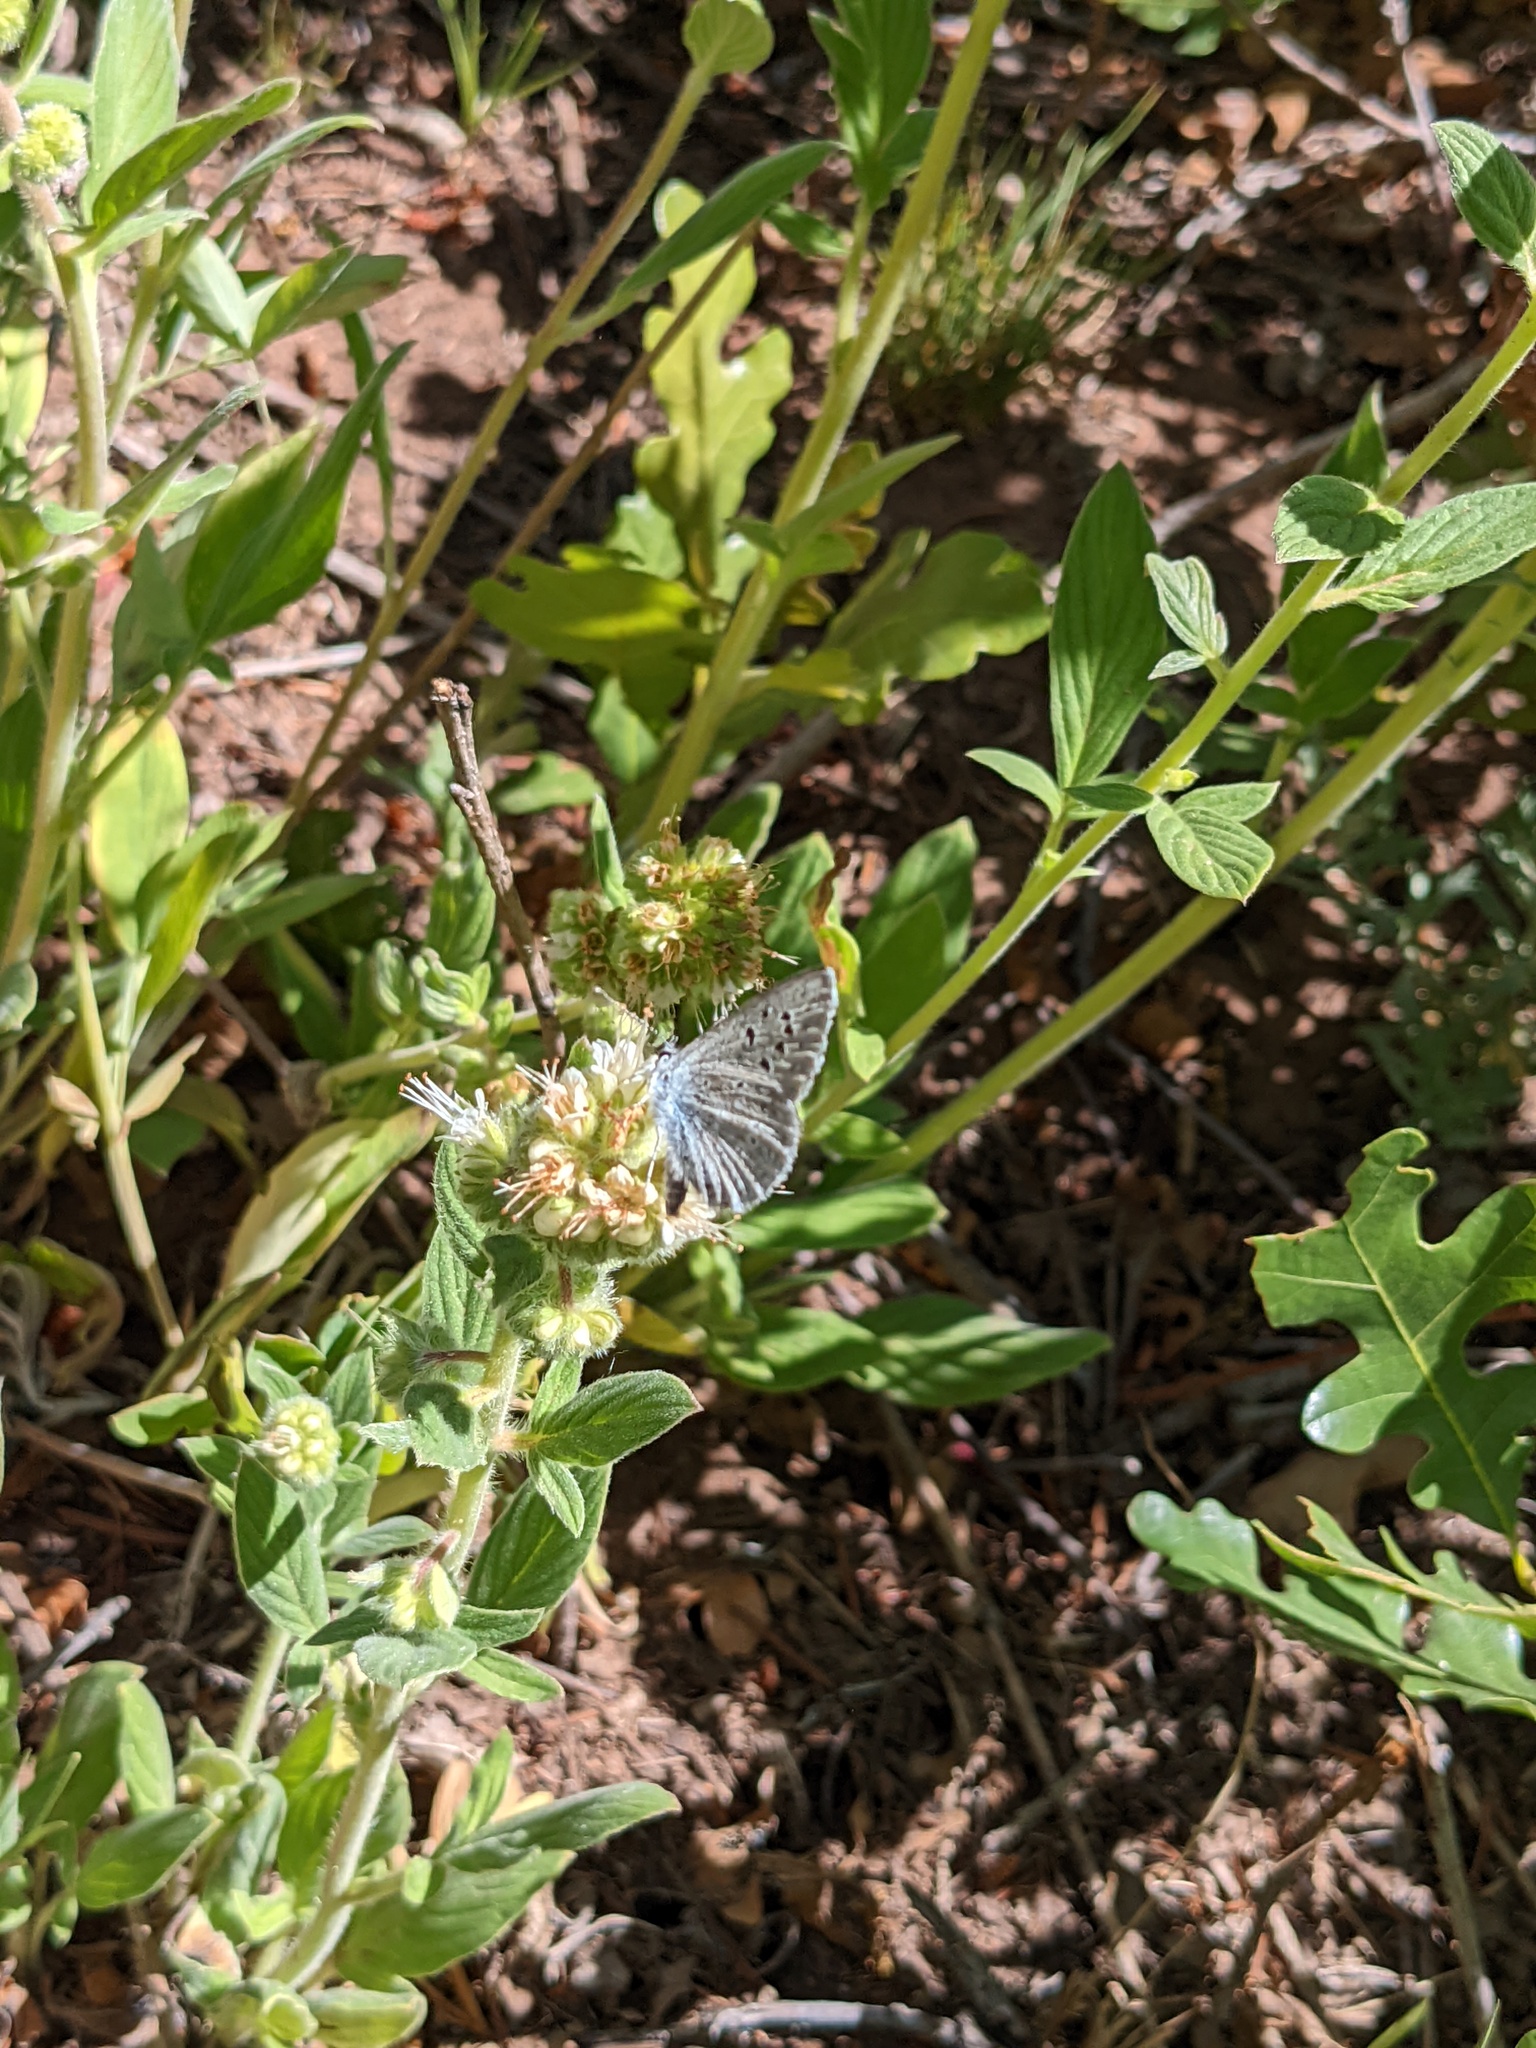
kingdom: Animalia
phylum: Arthropoda
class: Insecta
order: Lepidoptera
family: Lycaenidae
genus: Icaricia
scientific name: Icaricia icarioides
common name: Boisduval's blue
